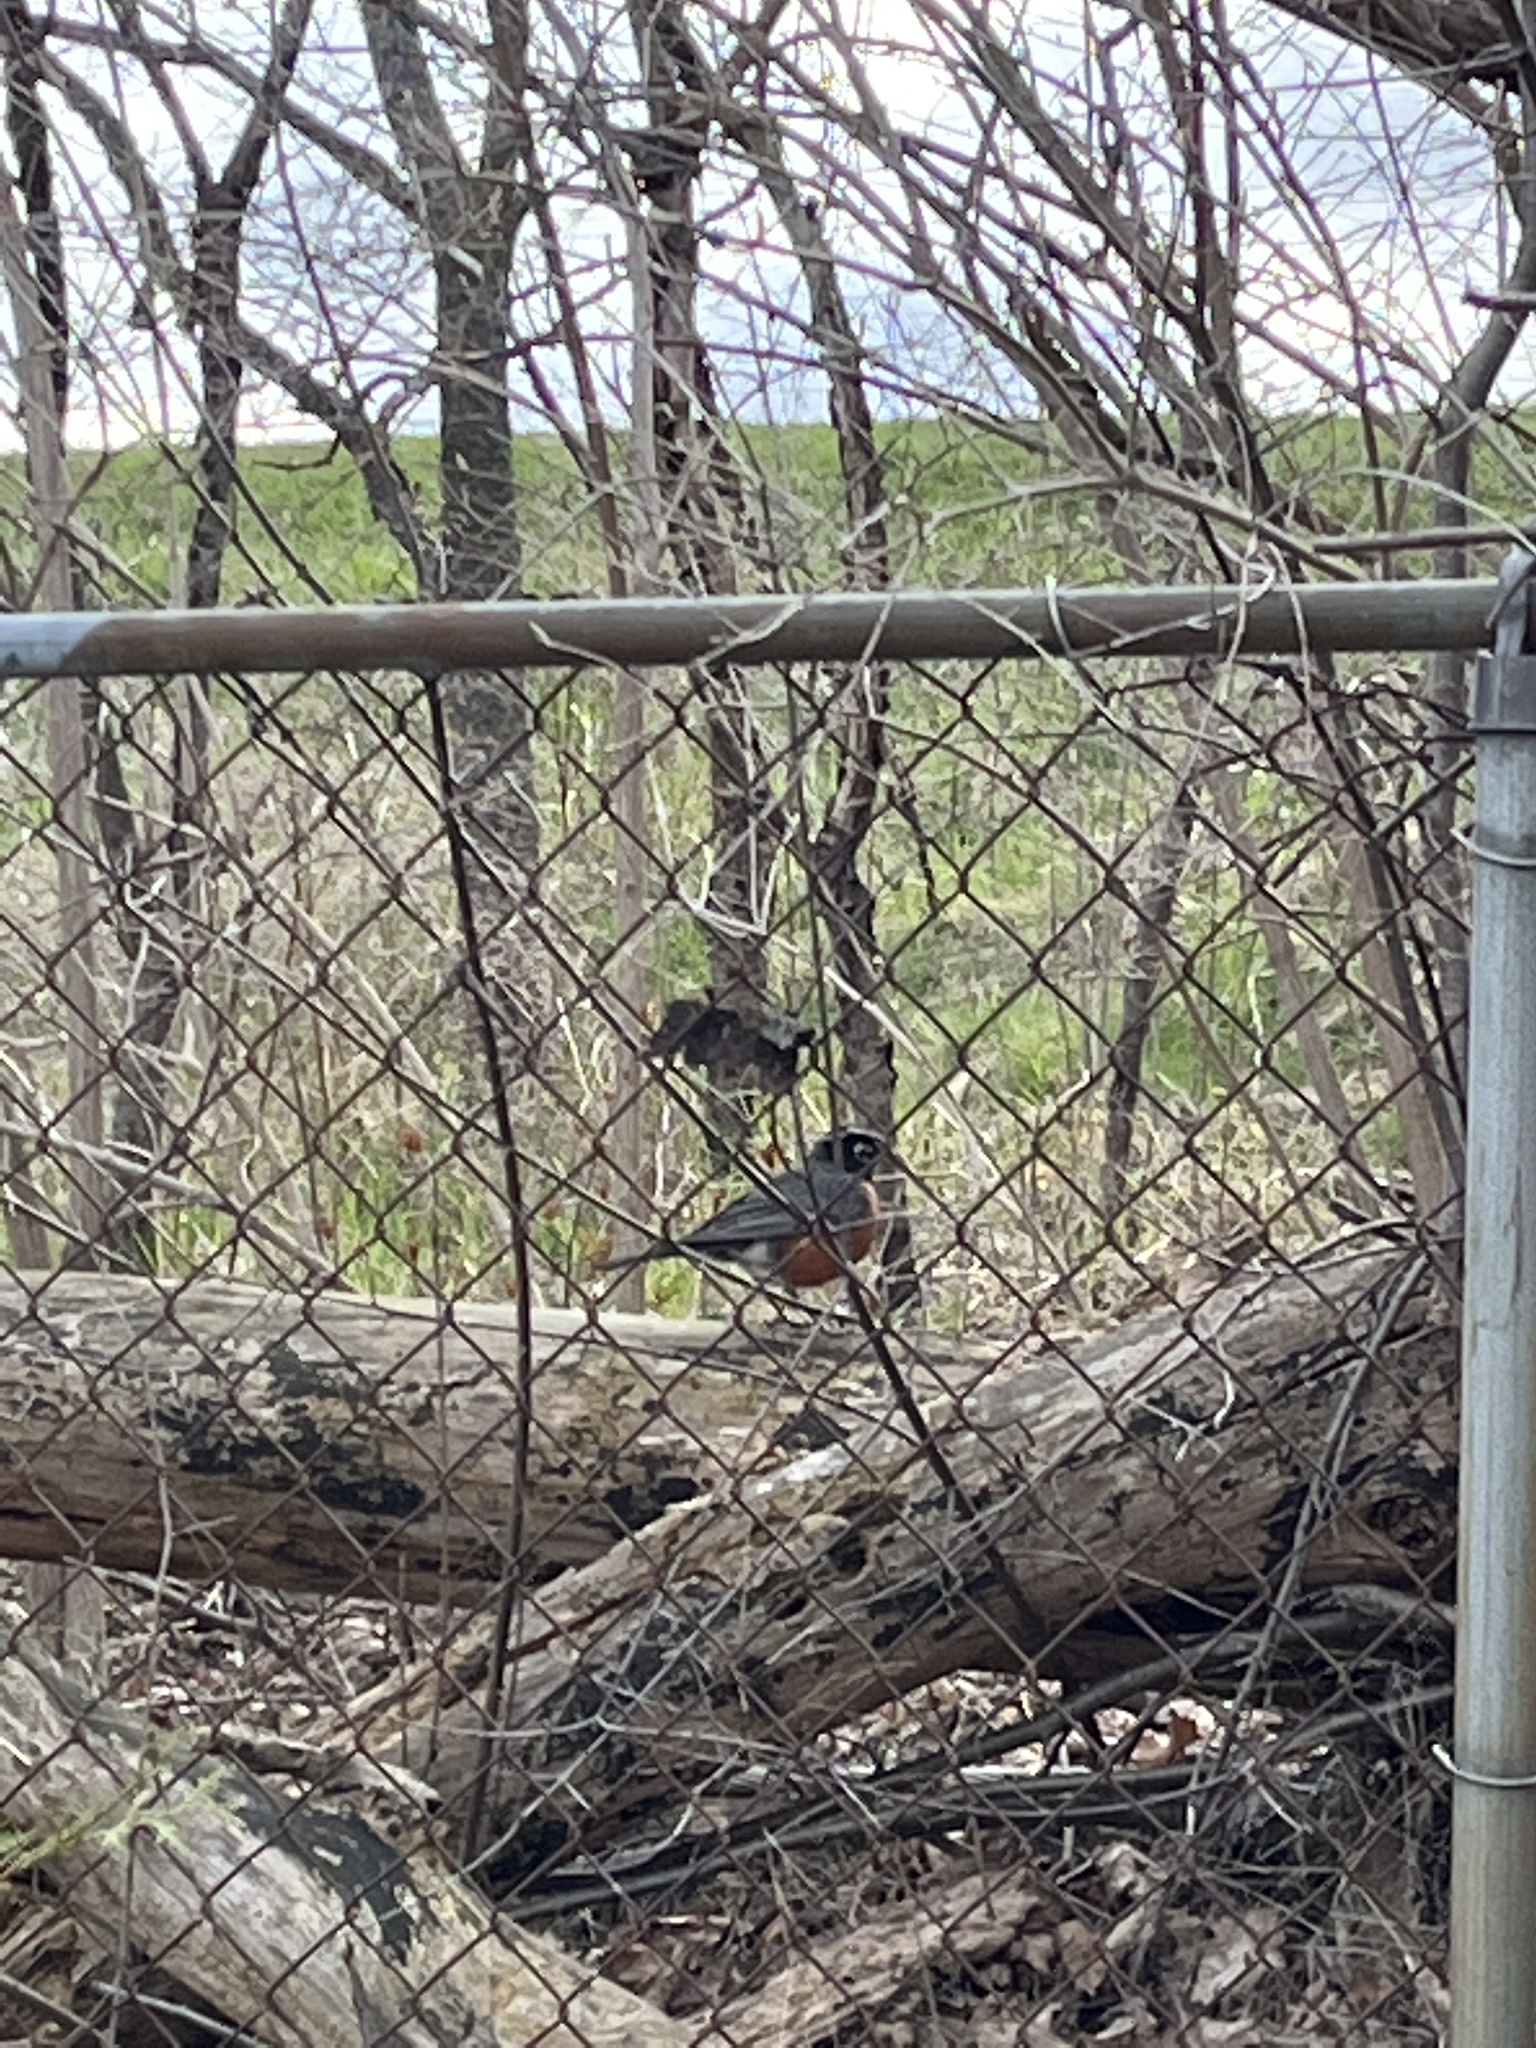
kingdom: Animalia
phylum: Chordata
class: Aves
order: Passeriformes
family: Turdidae
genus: Turdus
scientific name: Turdus migratorius
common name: American robin
